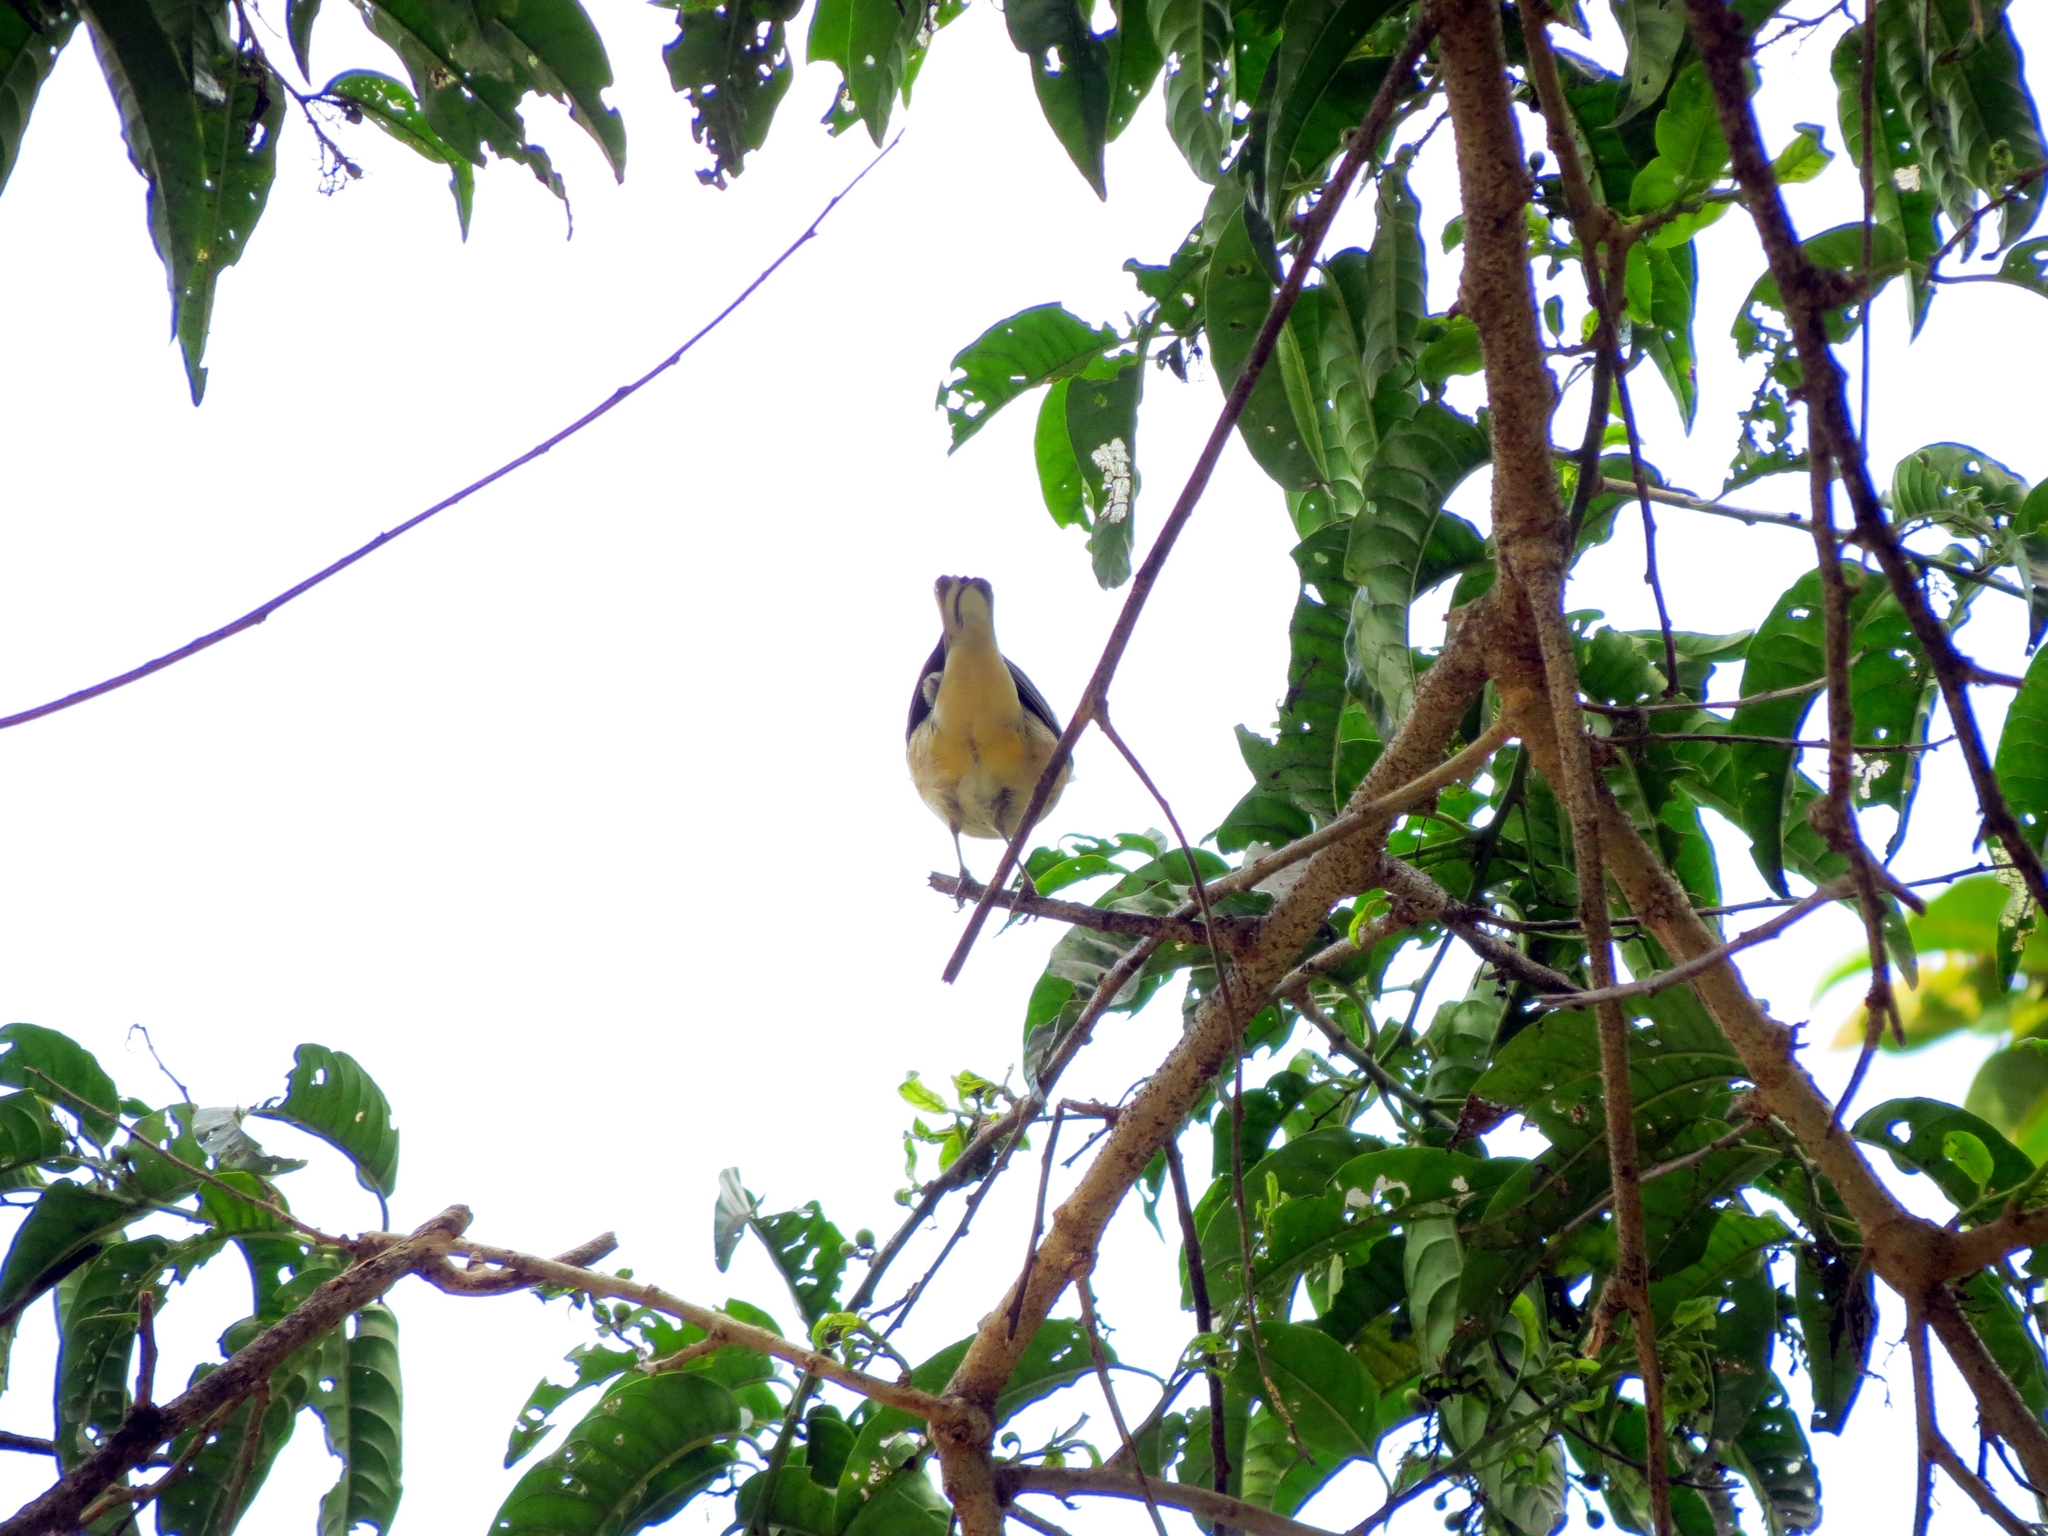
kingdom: Animalia
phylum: Chordata
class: Aves
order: Passeriformes
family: Parulidae
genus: Setophaga
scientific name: Setophaga castanea
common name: Bay-breasted warbler
